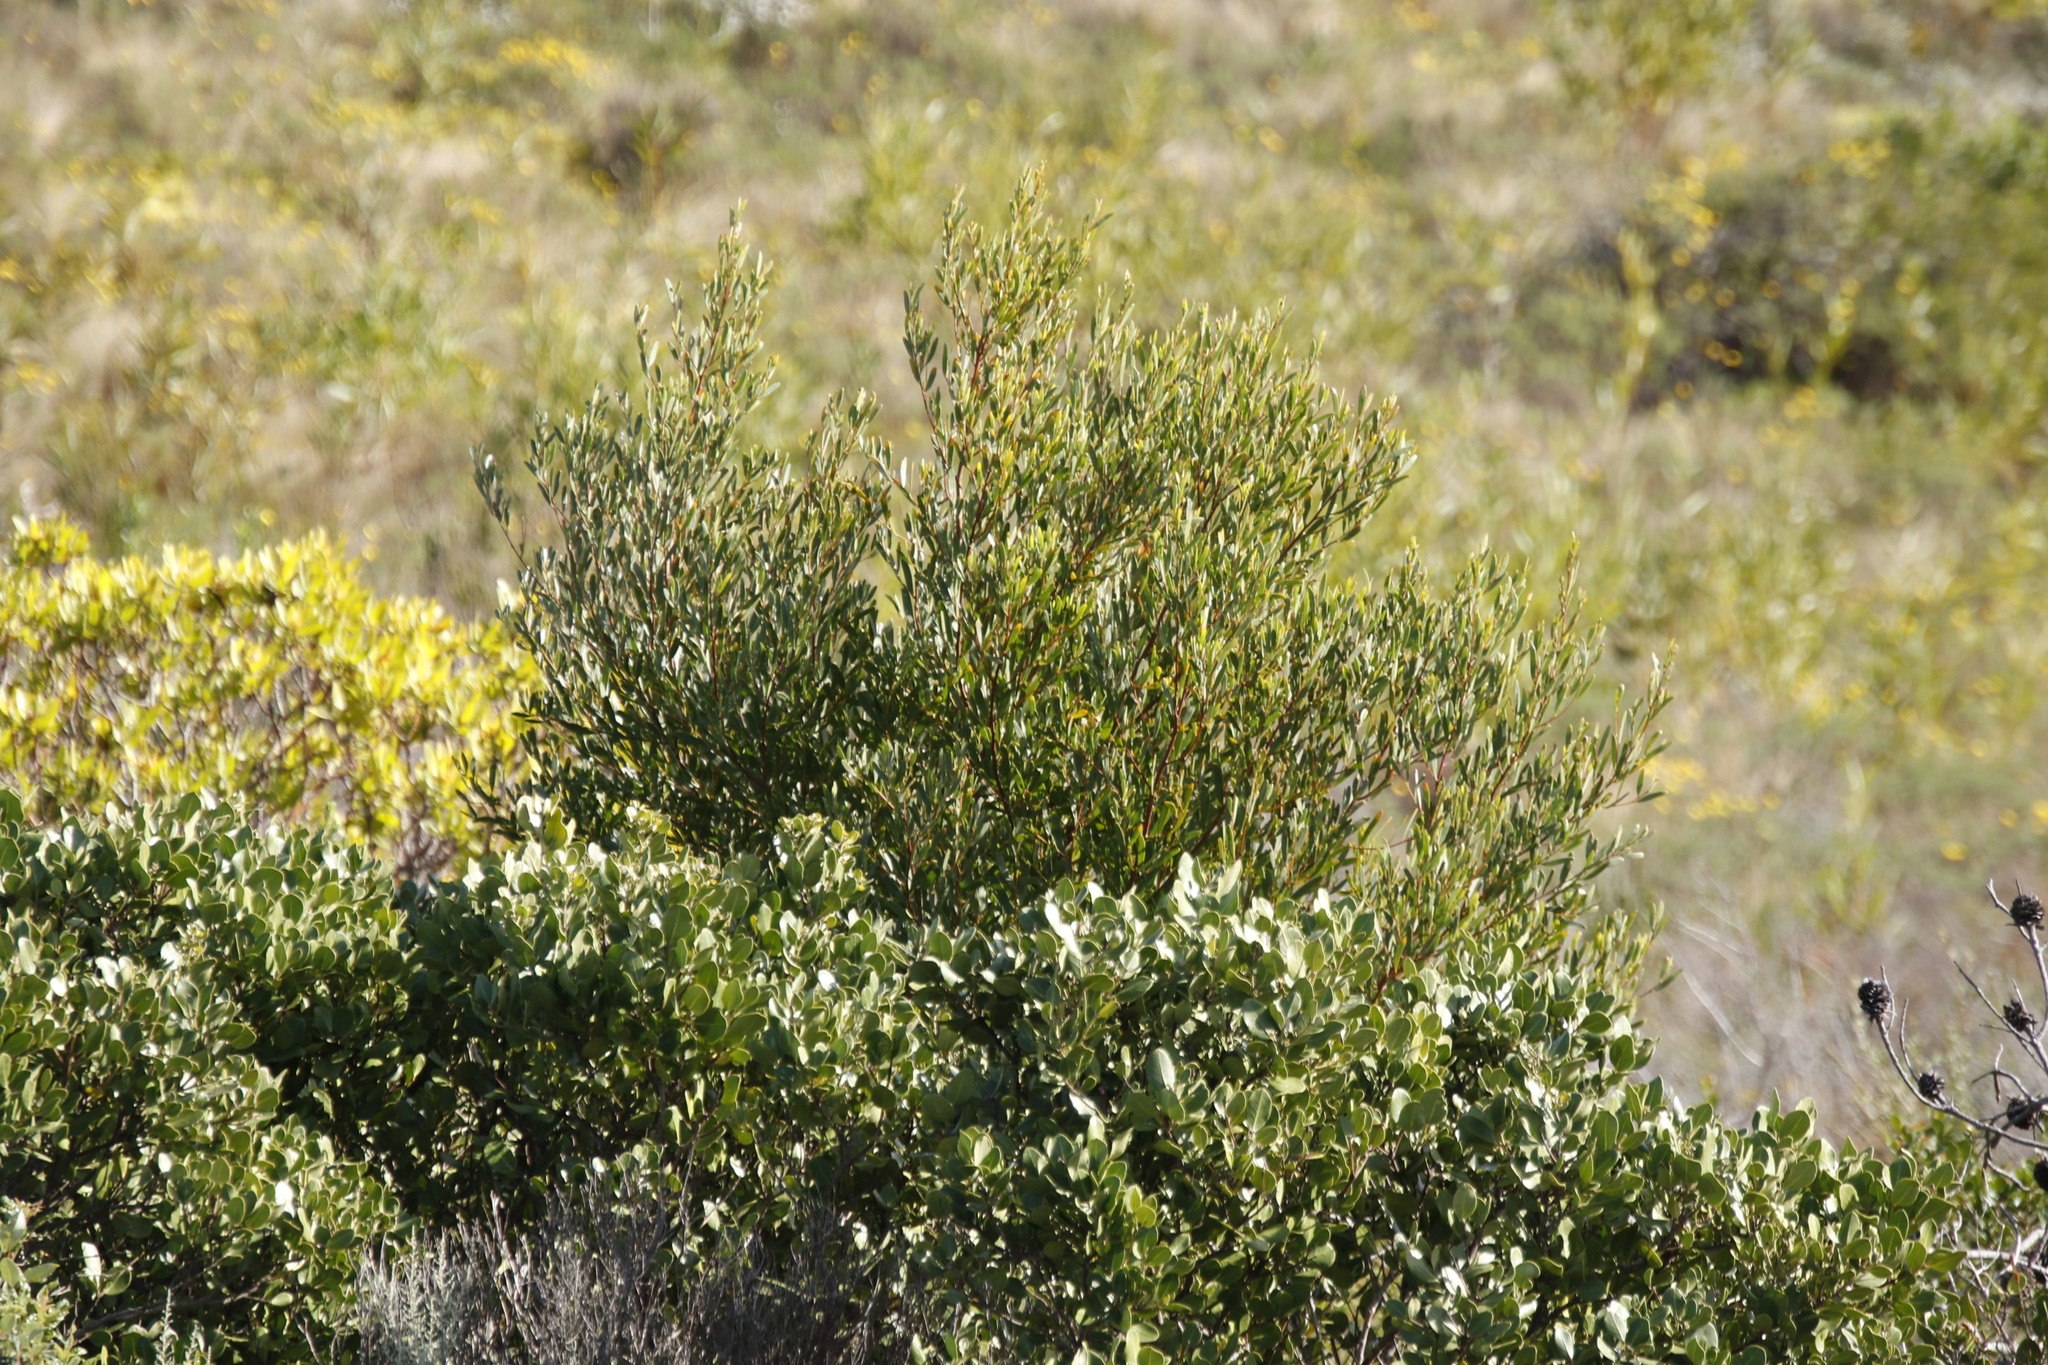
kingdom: Plantae
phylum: Tracheophyta
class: Magnoliopsida
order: Fabales
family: Fabaceae
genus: Acacia
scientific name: Acacia cyclops
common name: Coastal wattle
